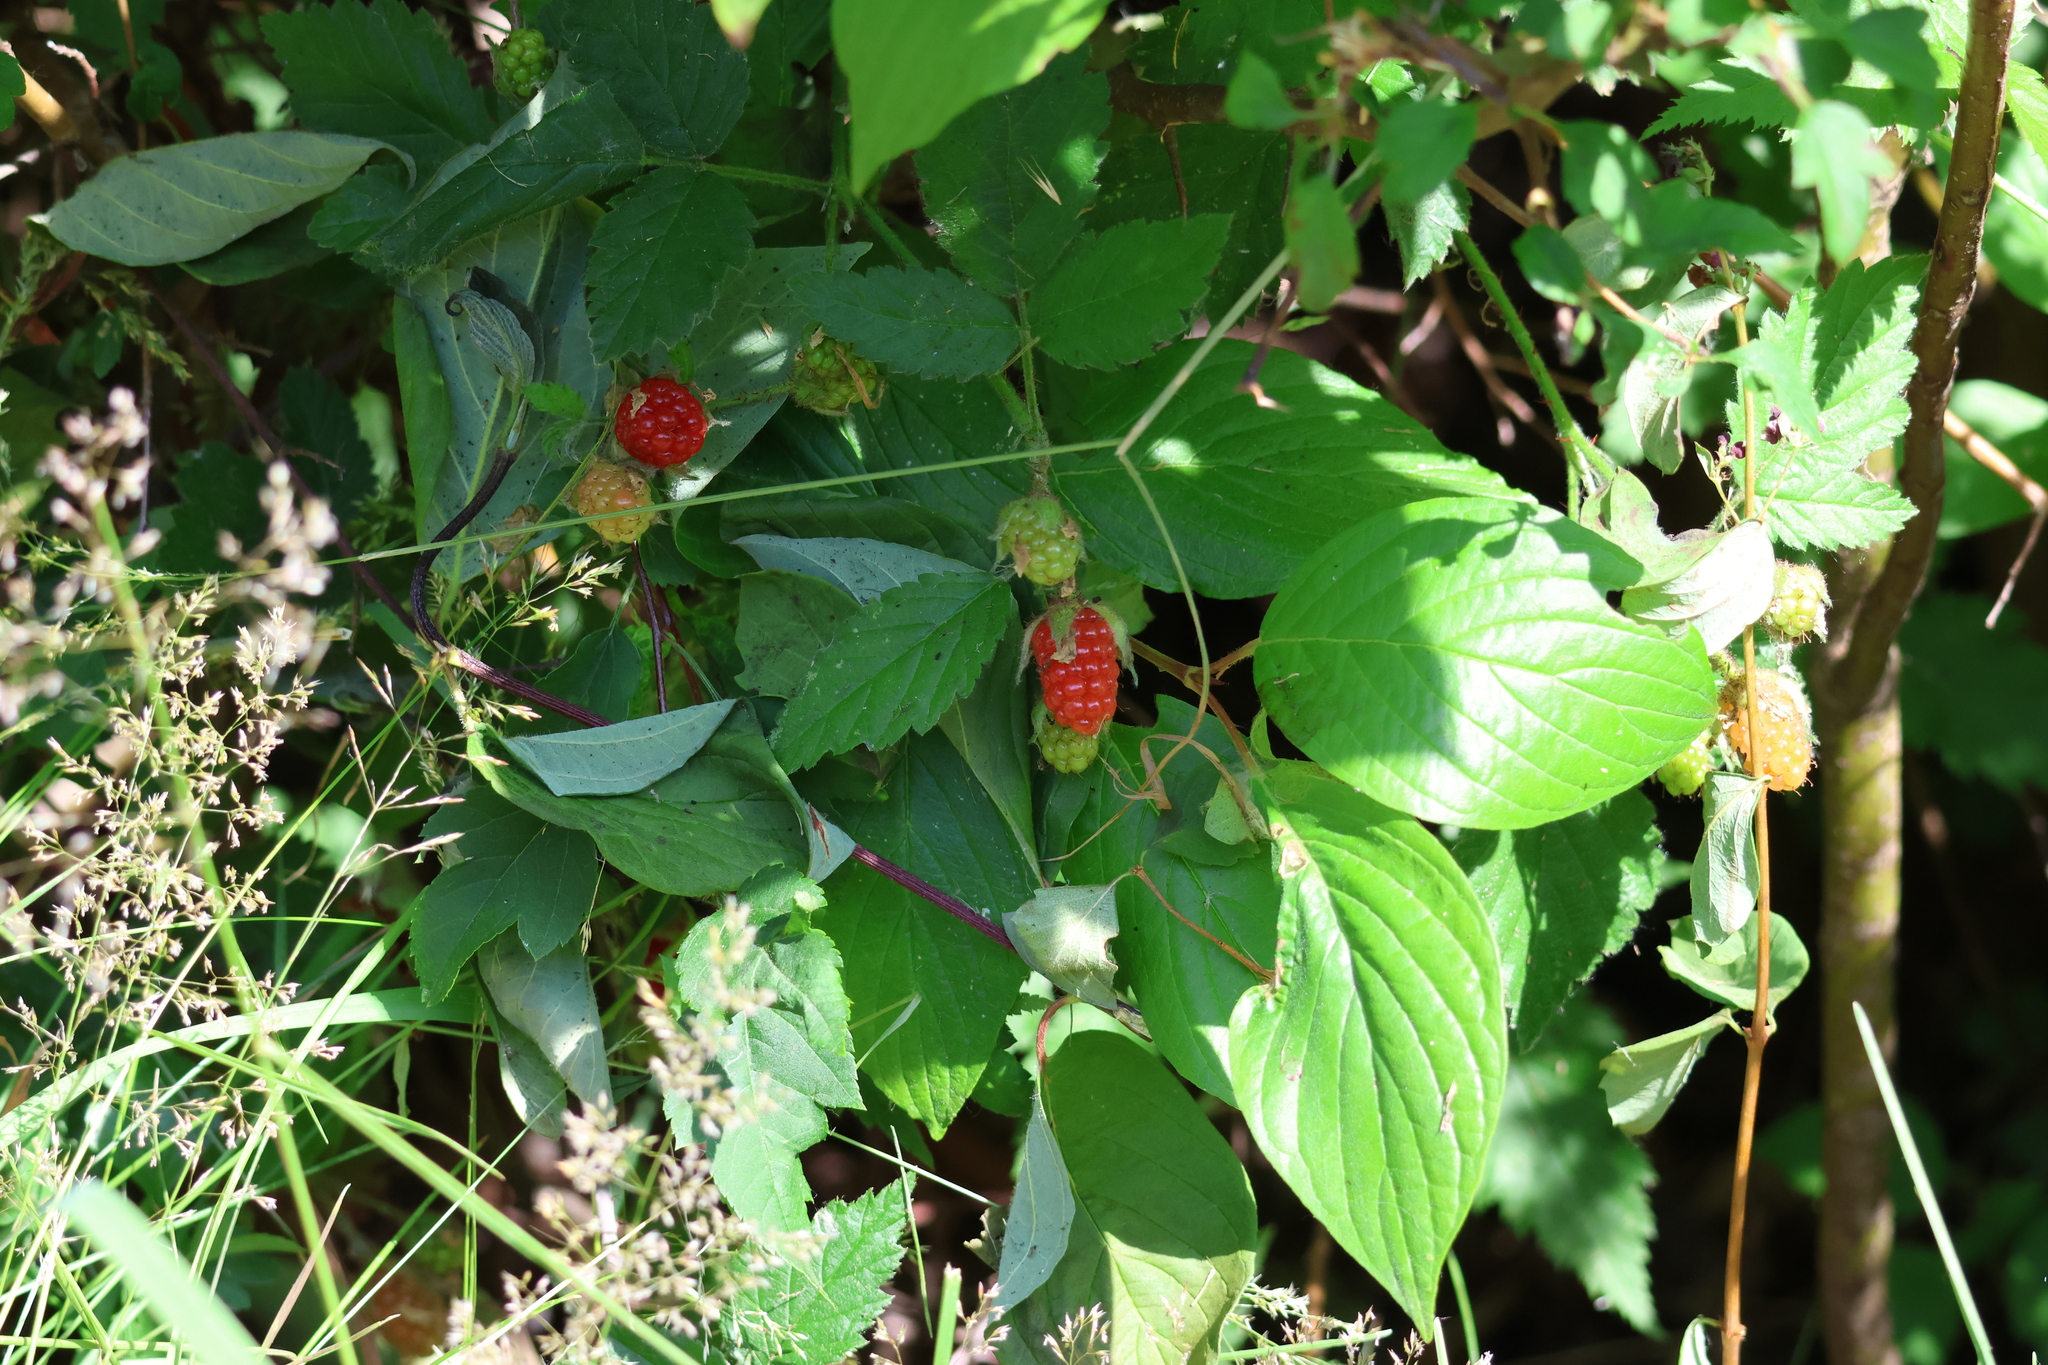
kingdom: Plantae
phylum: Tracheophyta
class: Magnoliopsida
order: Rosales
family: Rosaceae
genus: Rubus
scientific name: Rubus ursinus
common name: Pacific blackberry
